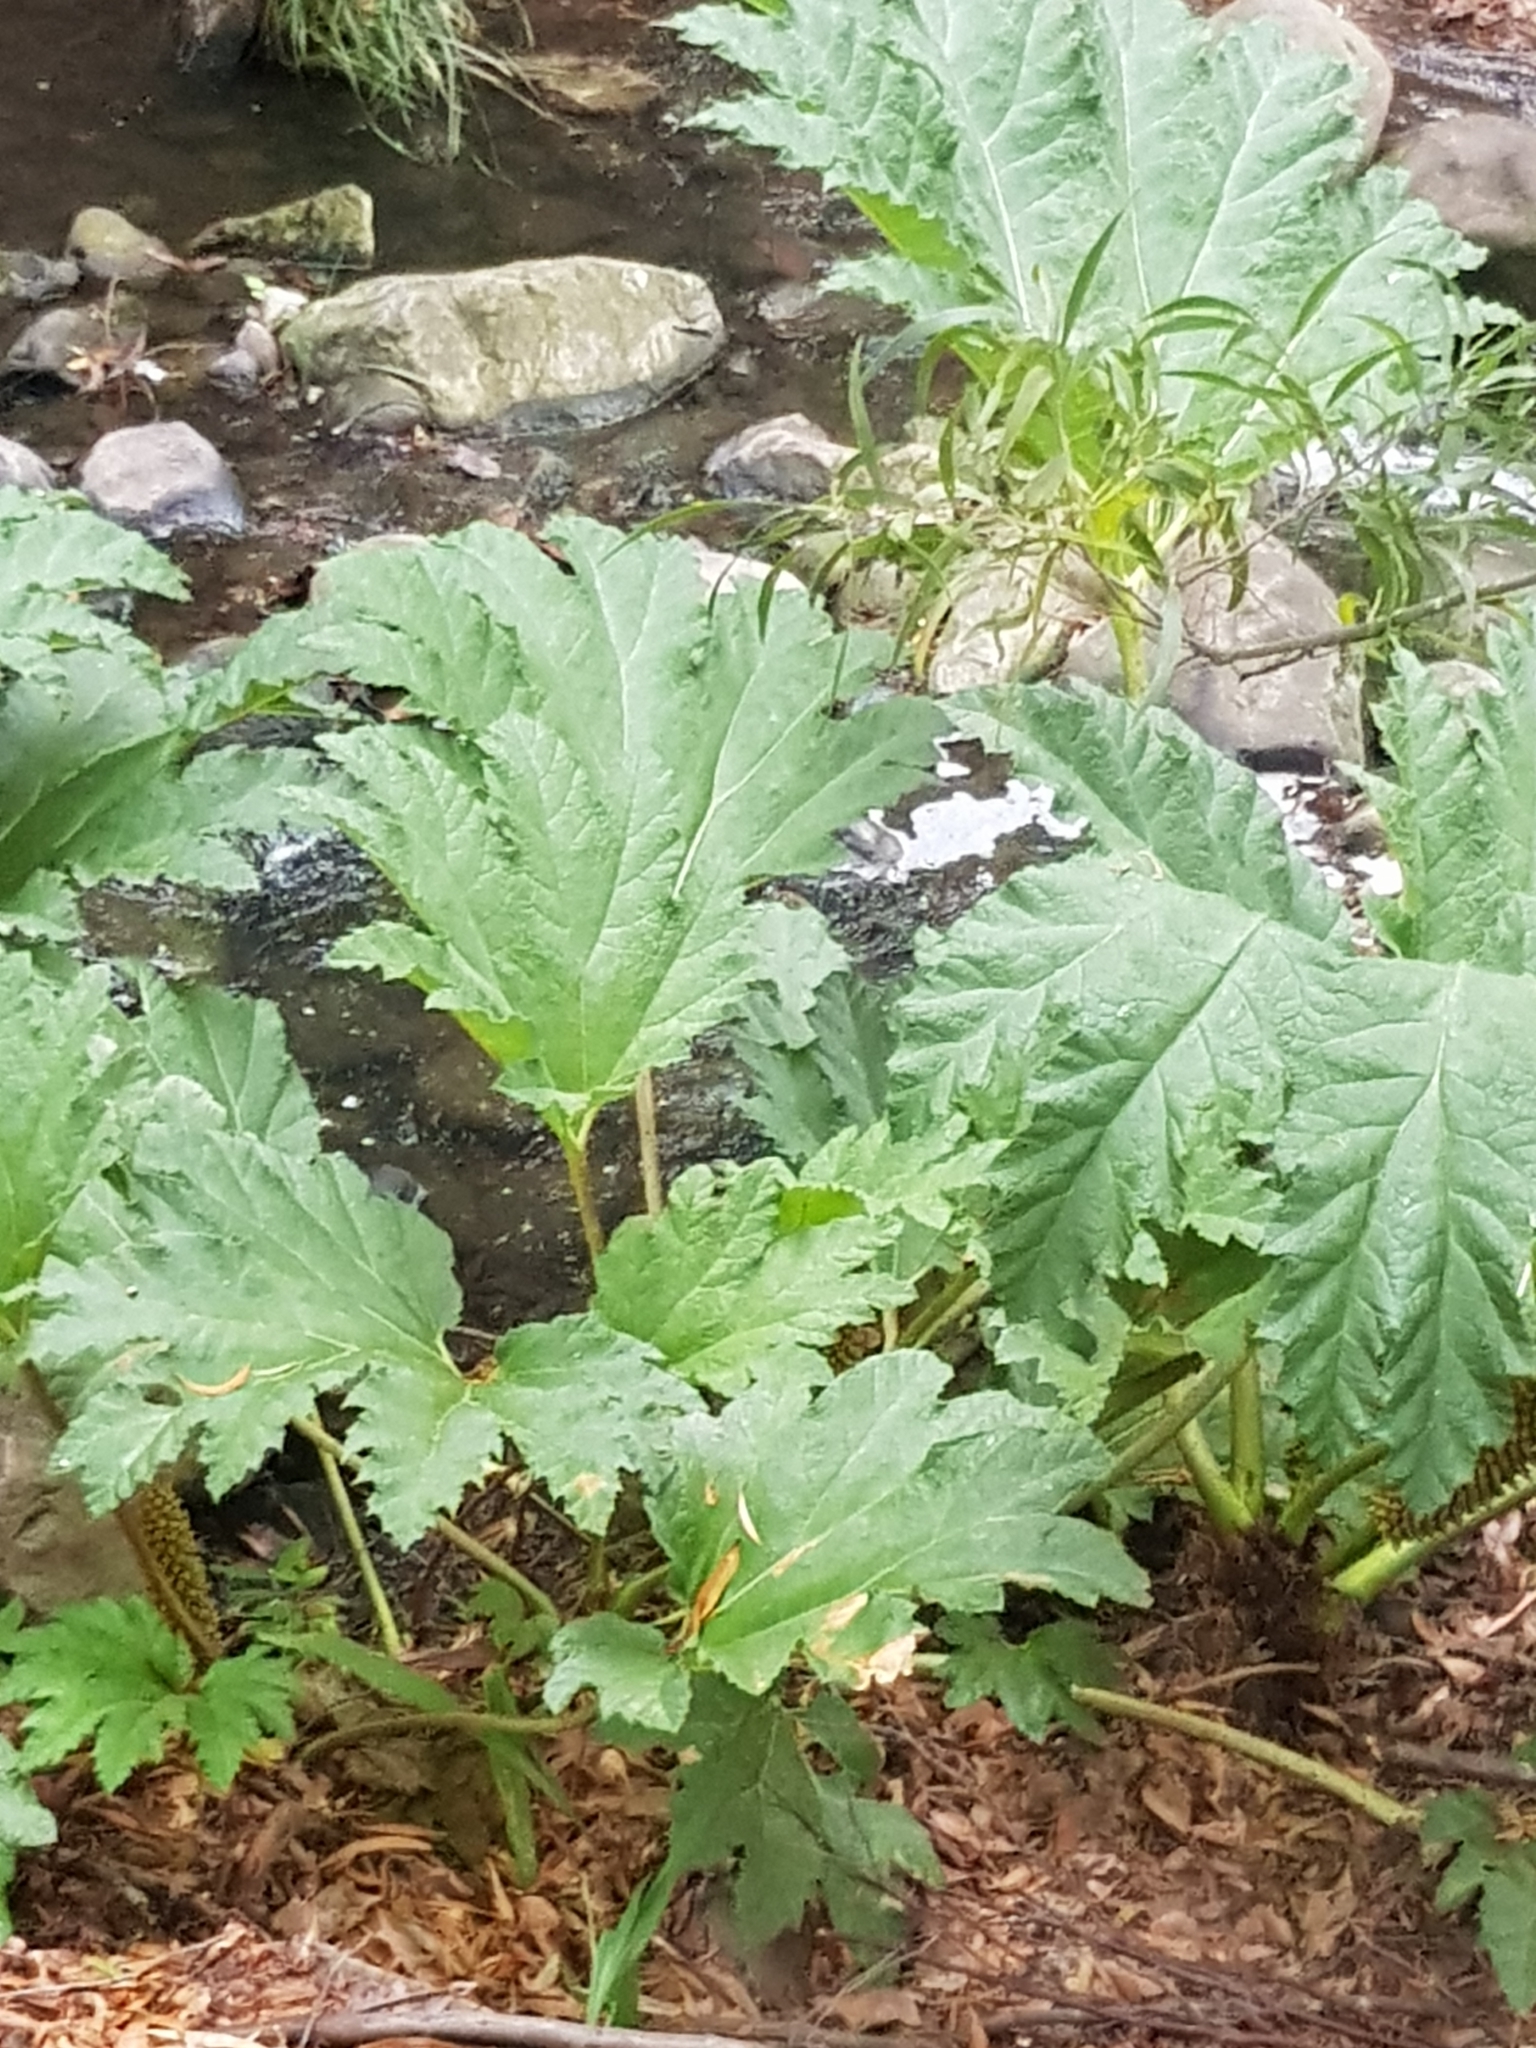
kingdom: Plantae
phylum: Tracheophyta
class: Magnoliopsida
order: Gunnerales
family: Gunneraceae
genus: Gunnera
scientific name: Gunnera tinctoria
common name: Giant-rhubarb
